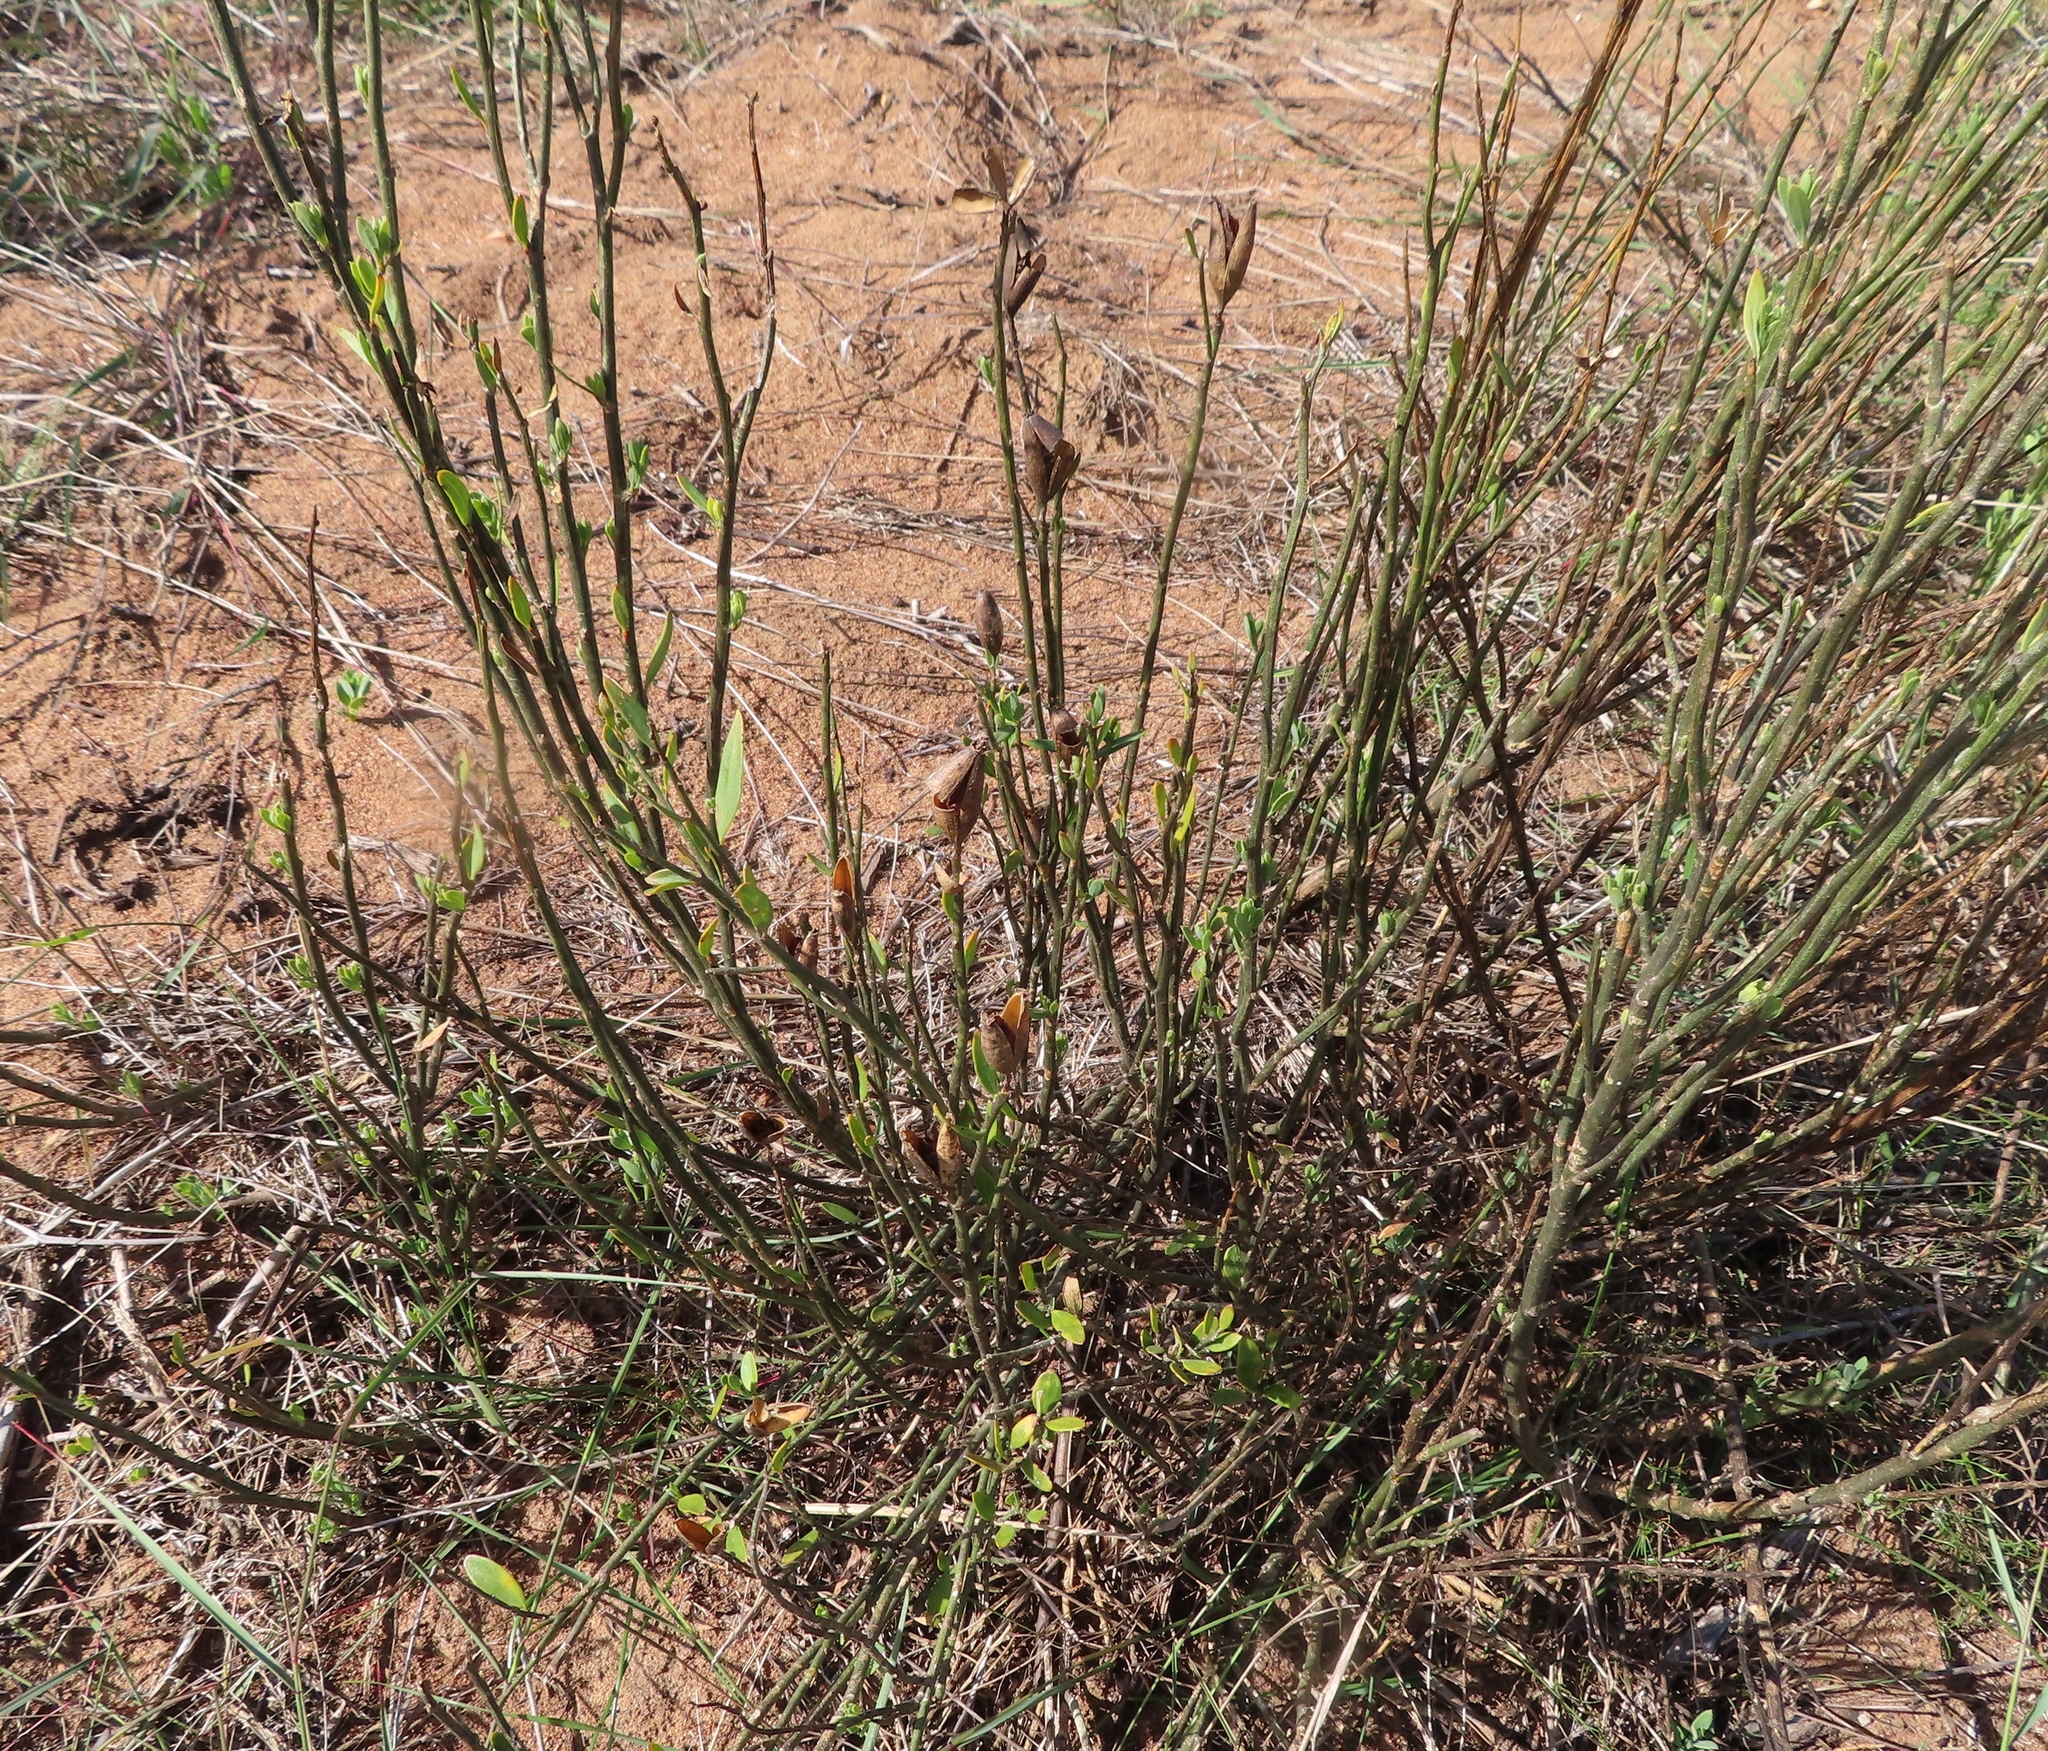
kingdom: Plantae
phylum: Tracheophyta
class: Magnoliopsida
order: Solanales
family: Montiniaceae
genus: Montinia
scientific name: Montinia caryophyllacea
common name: Wild clove-bush
